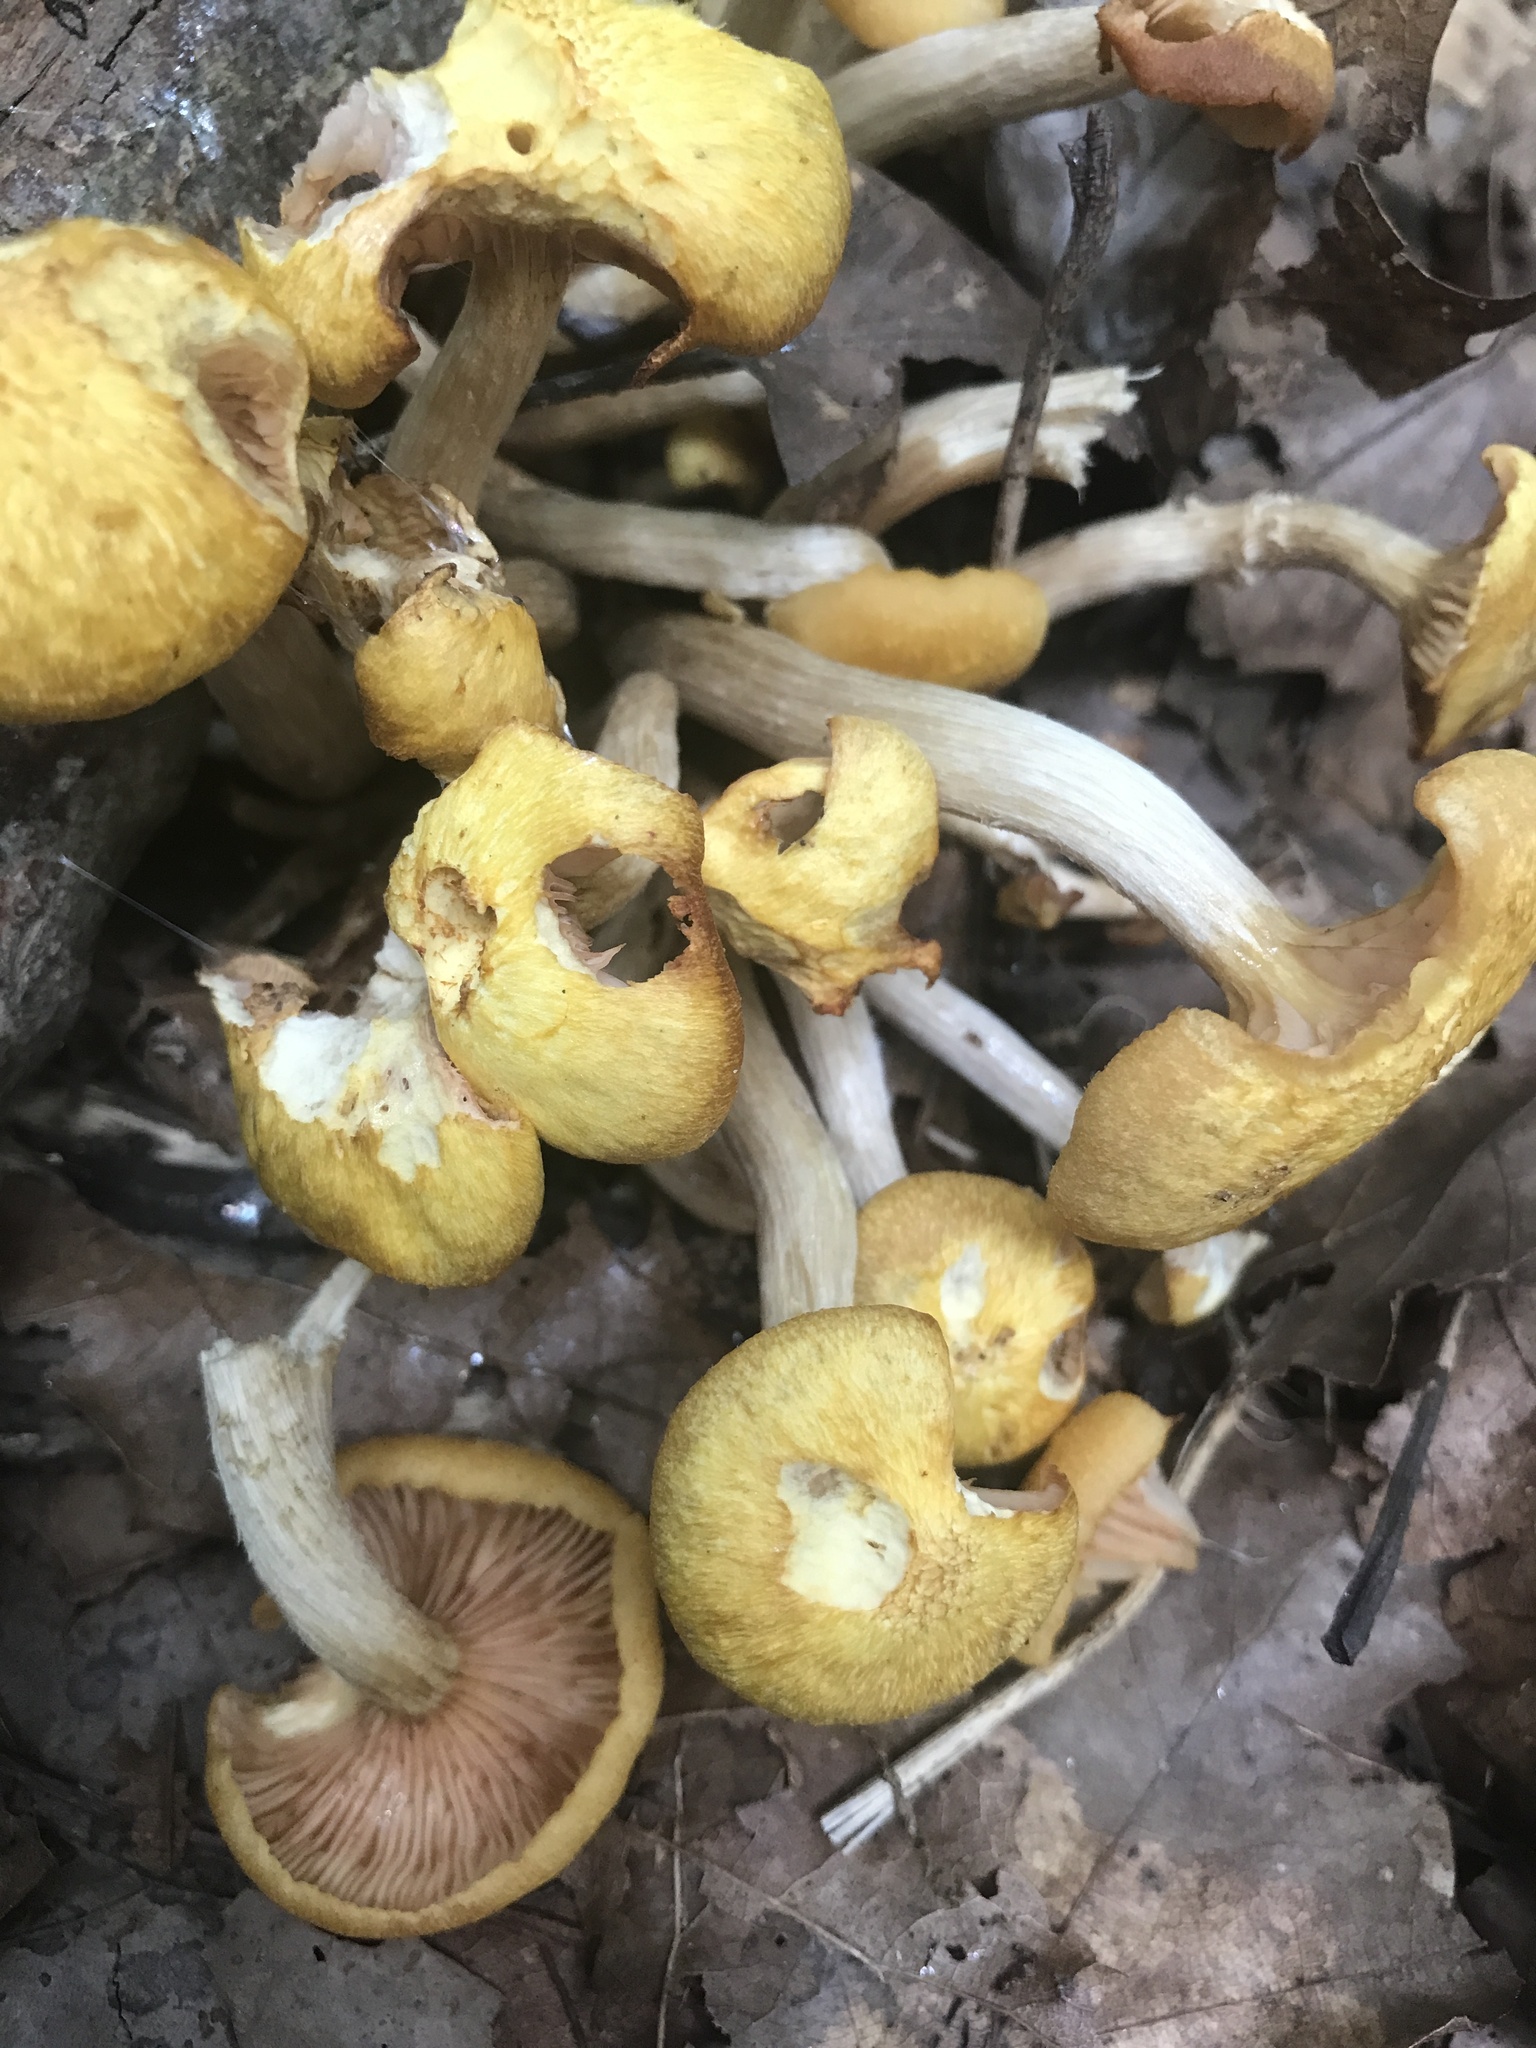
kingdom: Fungi
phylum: Basidiomycota
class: Agaricomycetes
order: Agaricales
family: Physalacriaceae
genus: Desarmillaria
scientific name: Desarmillaria caespitosa
